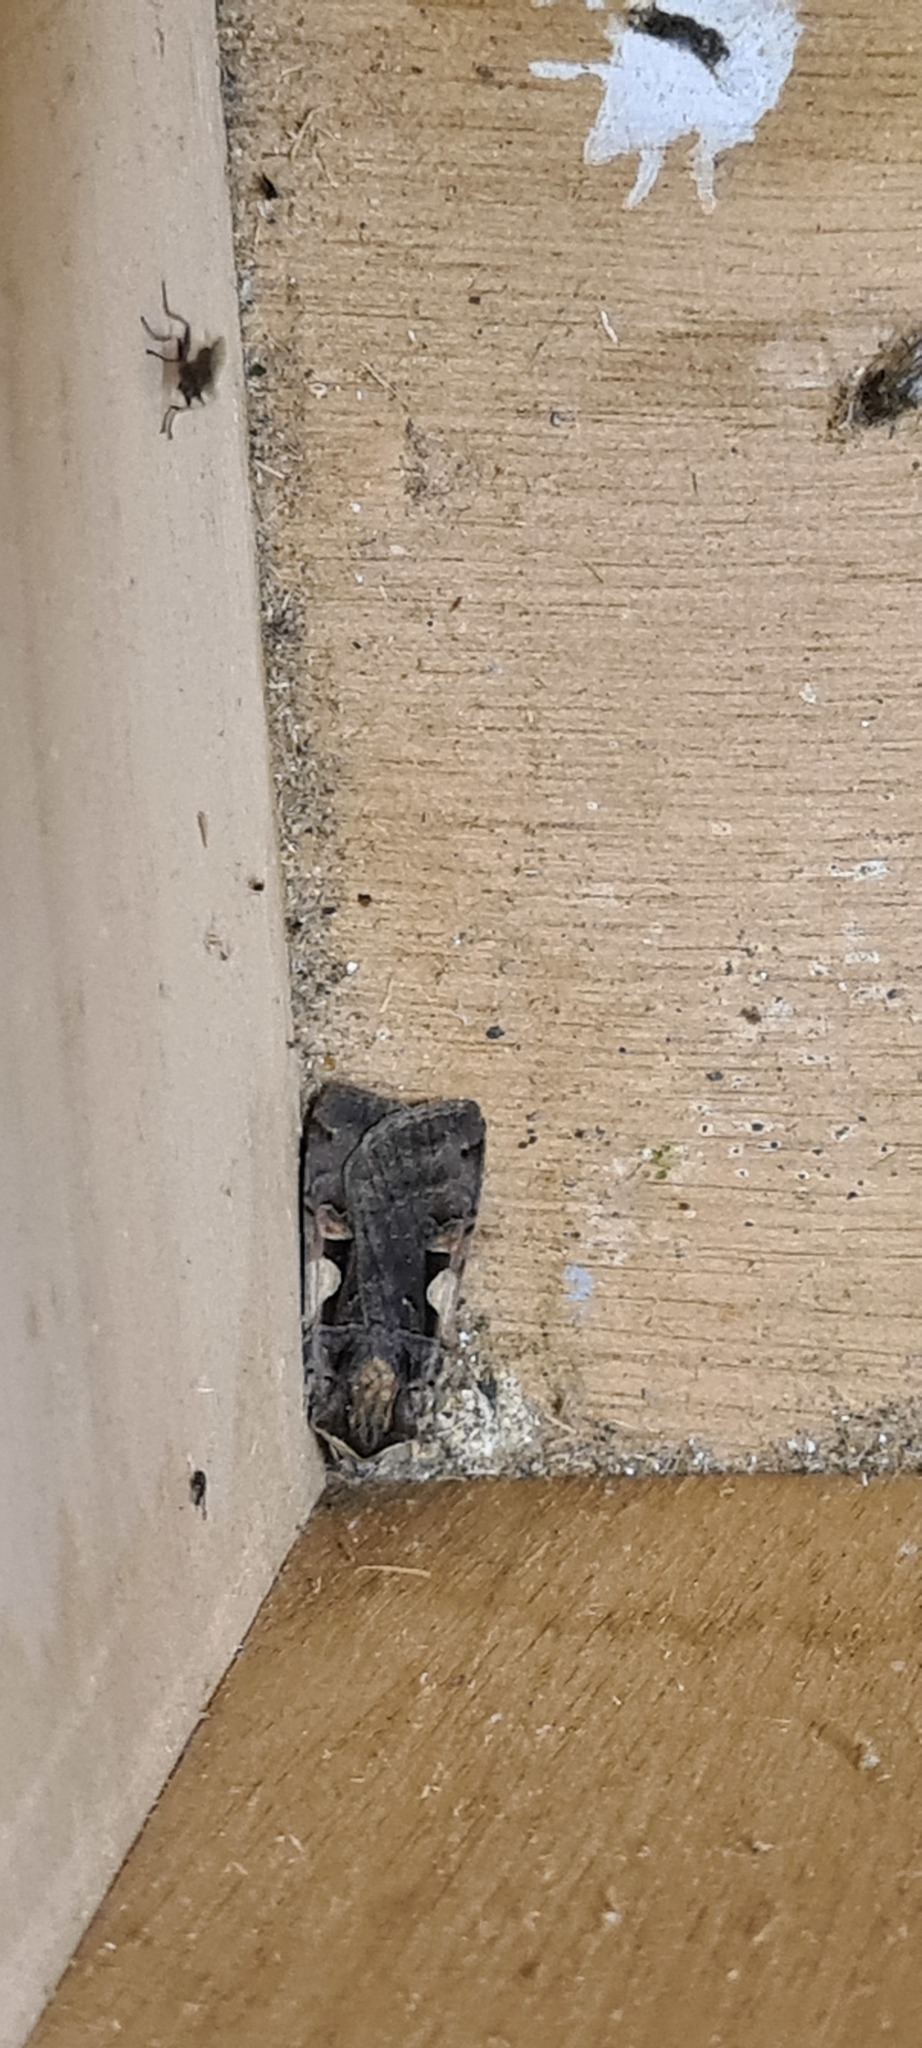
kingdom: Animalia
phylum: Arthropoda
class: Insecta
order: Lepidoptera
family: Noctuidae
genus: Xestia
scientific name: Xestia c-nigrum
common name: Setaceous hebrew character
